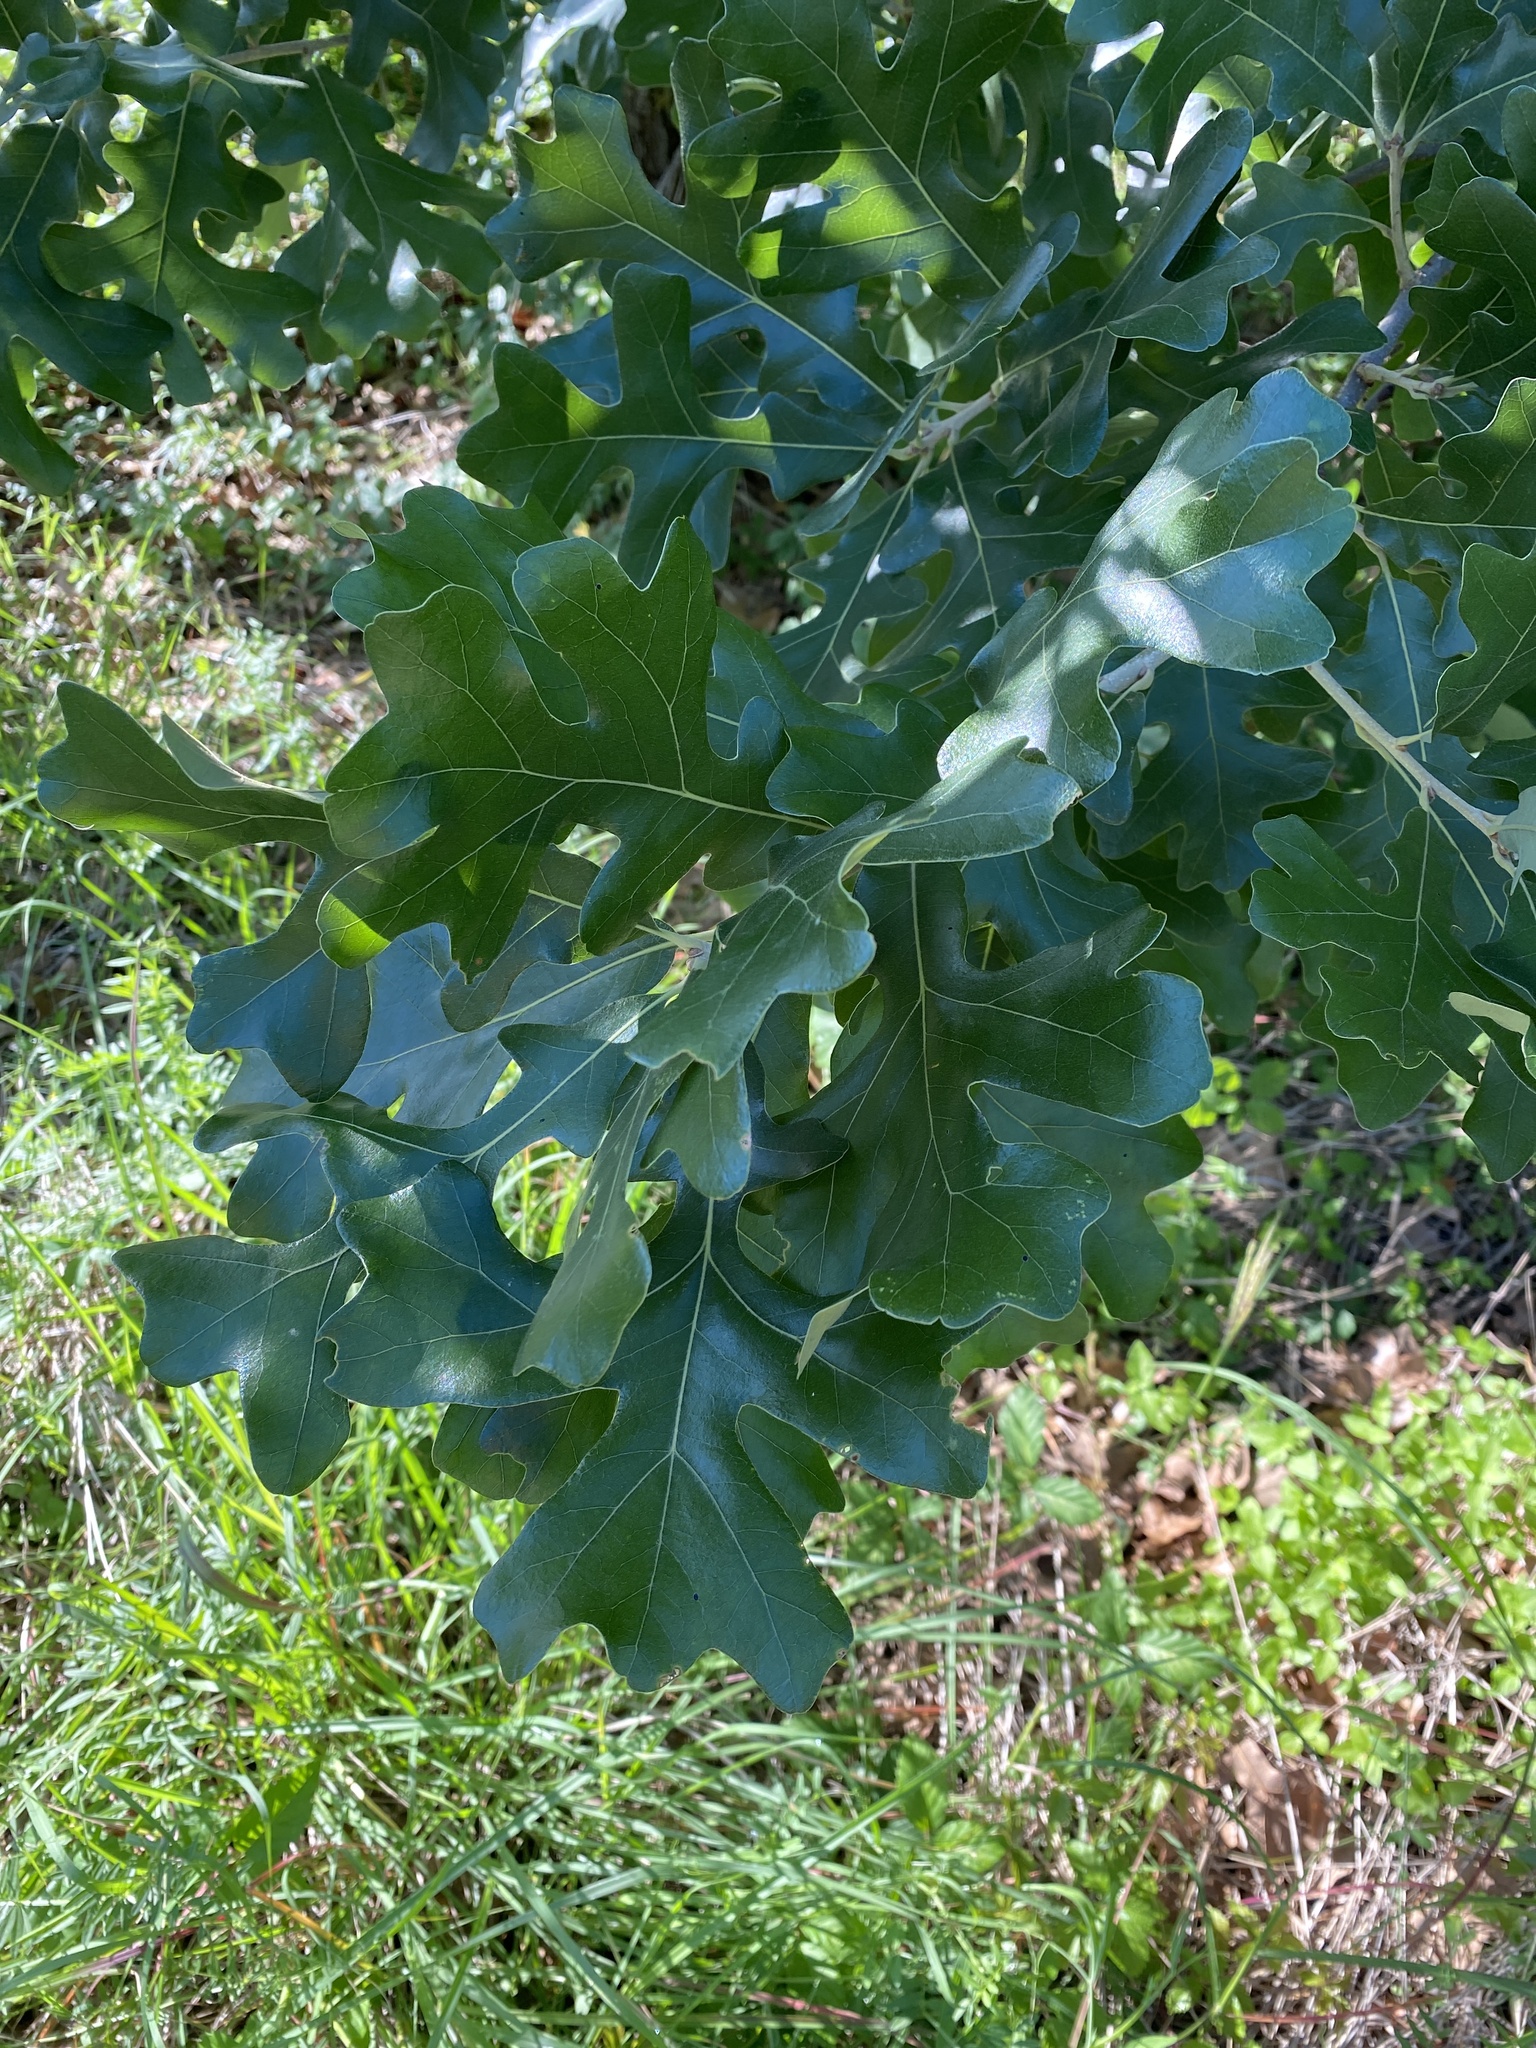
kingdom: Plantae
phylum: Tracheophyta
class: Magnoliopsida
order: Fagales
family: Fagaceae
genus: Quercus
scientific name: Quercus stellata
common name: Post oak
